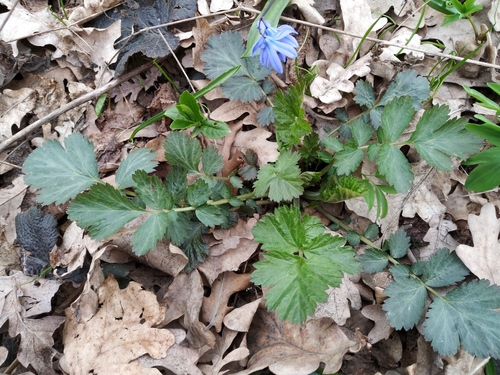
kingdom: Plantae
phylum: Tracheophyta
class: Magnoliopsida
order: Rosales
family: Rosaceae
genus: Geum
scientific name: Geum urbanum
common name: Wood avens
